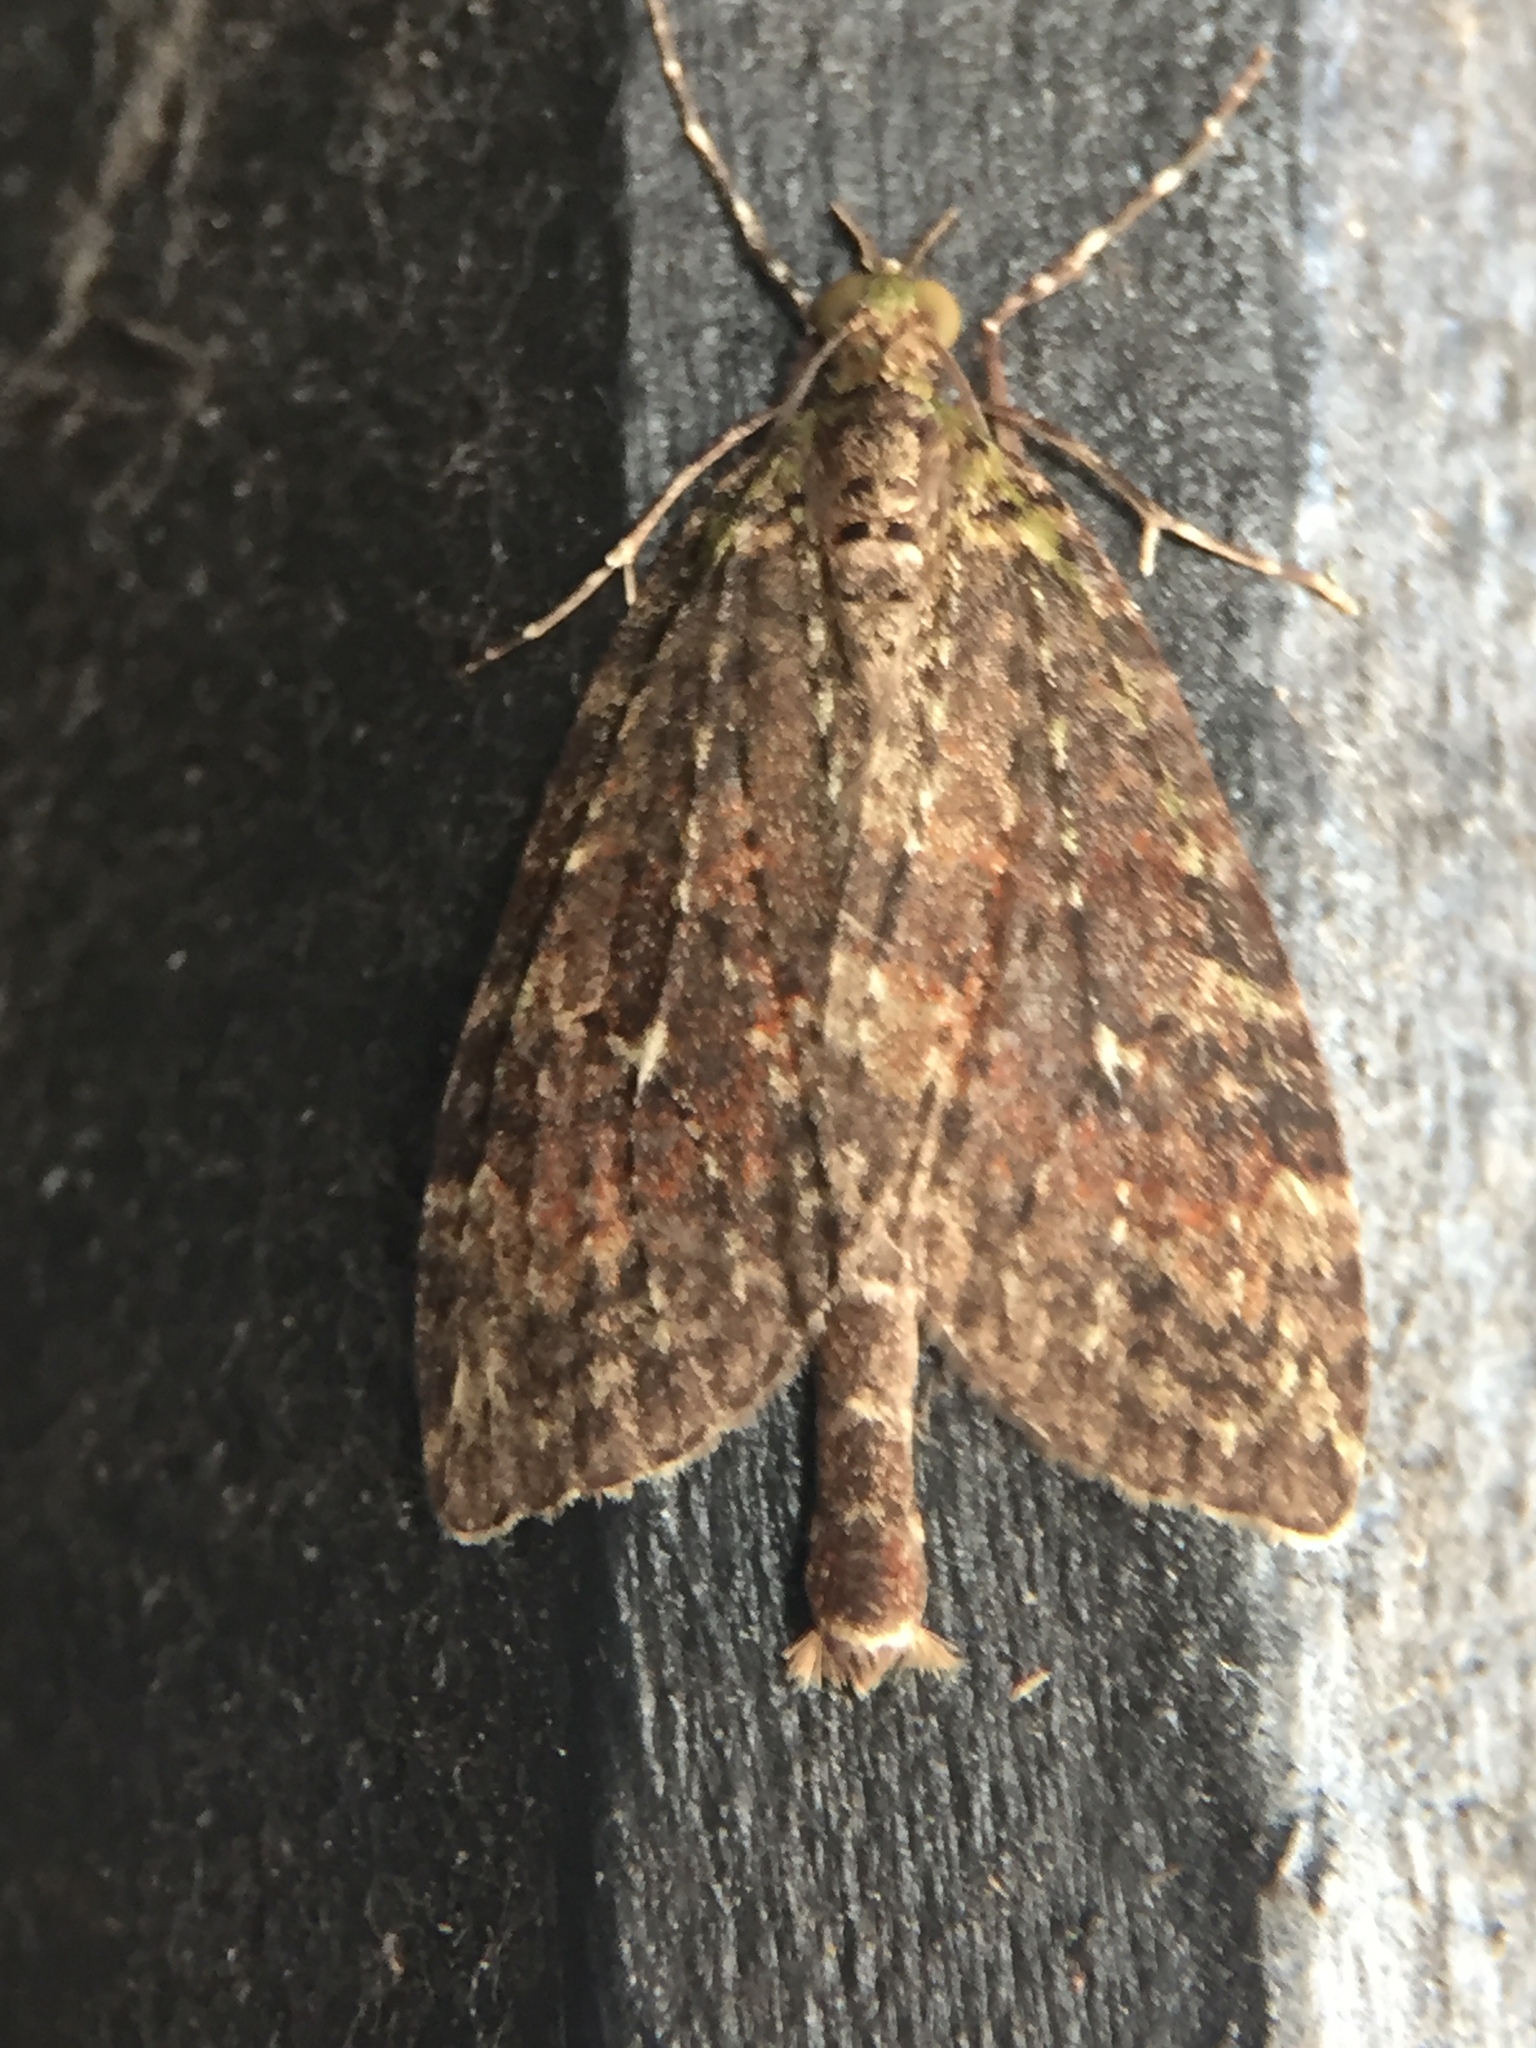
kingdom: Animalia
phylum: Arthropoda
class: Insecta
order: Lepidoptera
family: Geometridae
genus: Tatosoma
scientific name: Tatosoma transitaria
